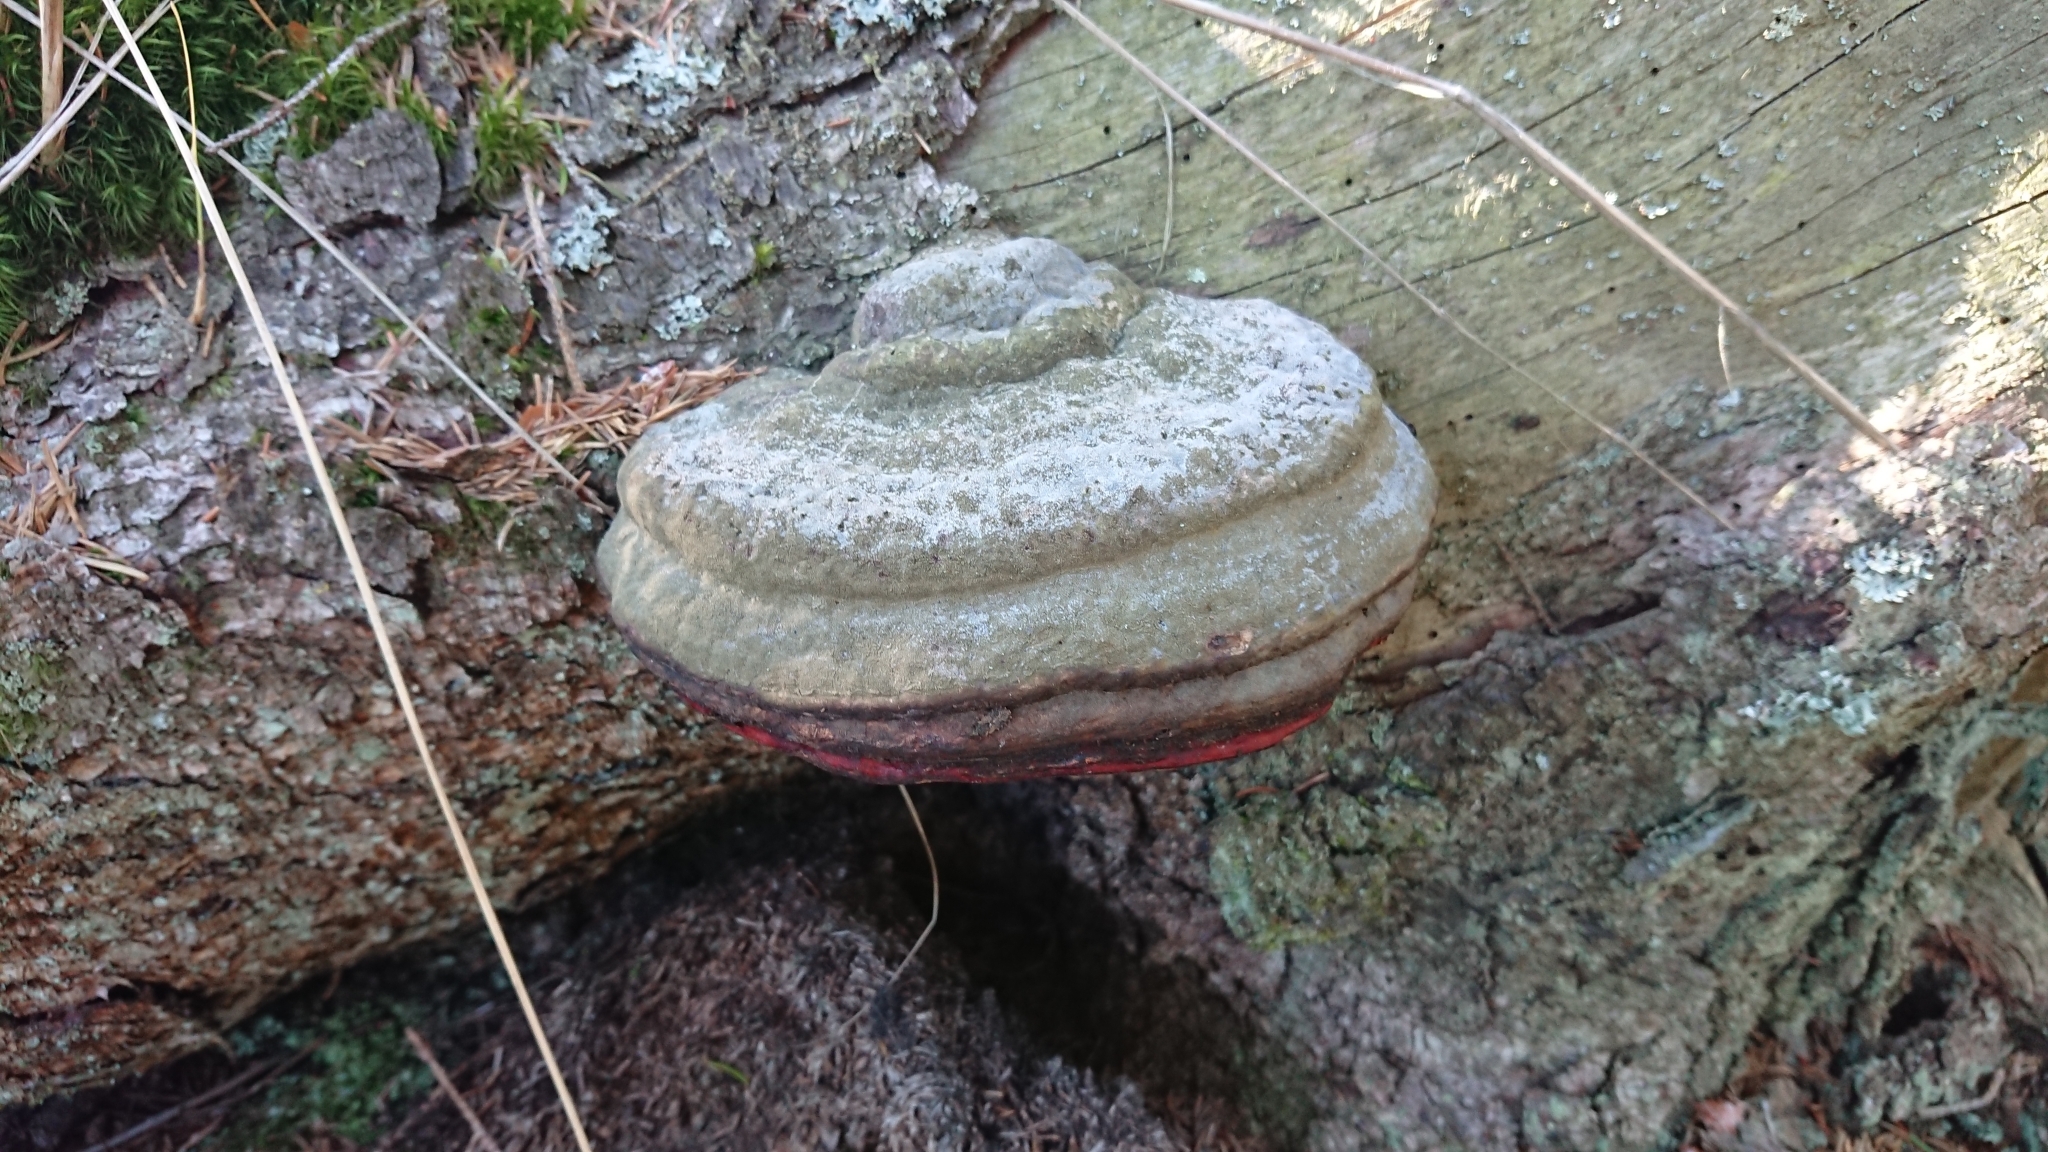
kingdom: Fungi
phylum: Basidiomycota
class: Agaricomycetes
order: Polyporales
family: Fomitopsidaceae
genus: Fomitopsis
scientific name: Fomitopsis pinicola
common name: Red-belted bracket
